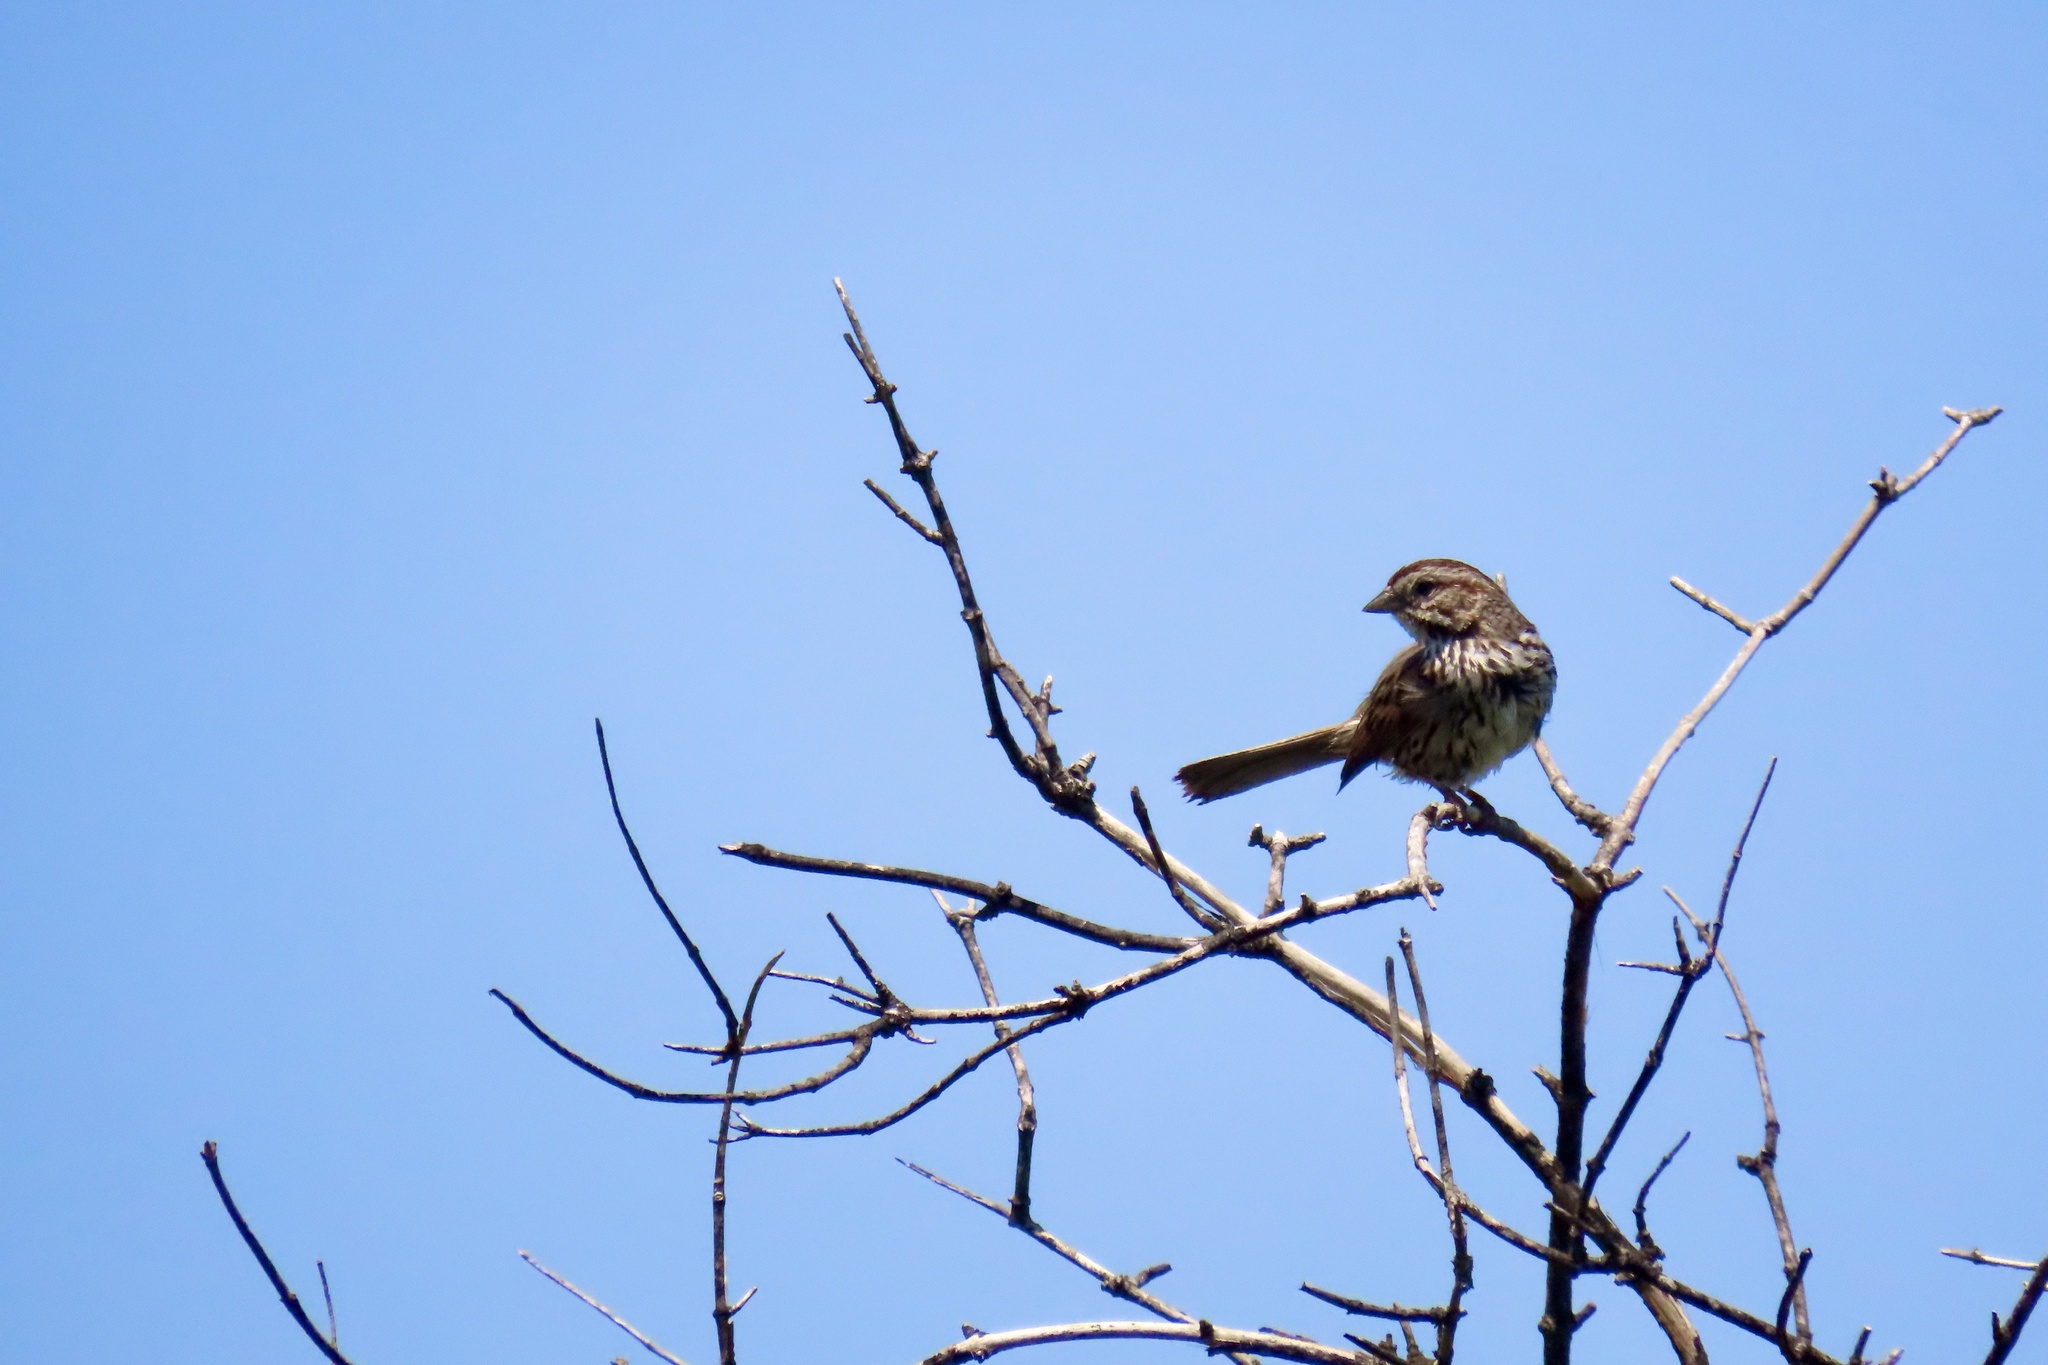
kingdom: Animalia
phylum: Chordata
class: Aves
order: Passeriformes
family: Passerellidae
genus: Melospiza
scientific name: Melospiza melodia
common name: Song sparrow
